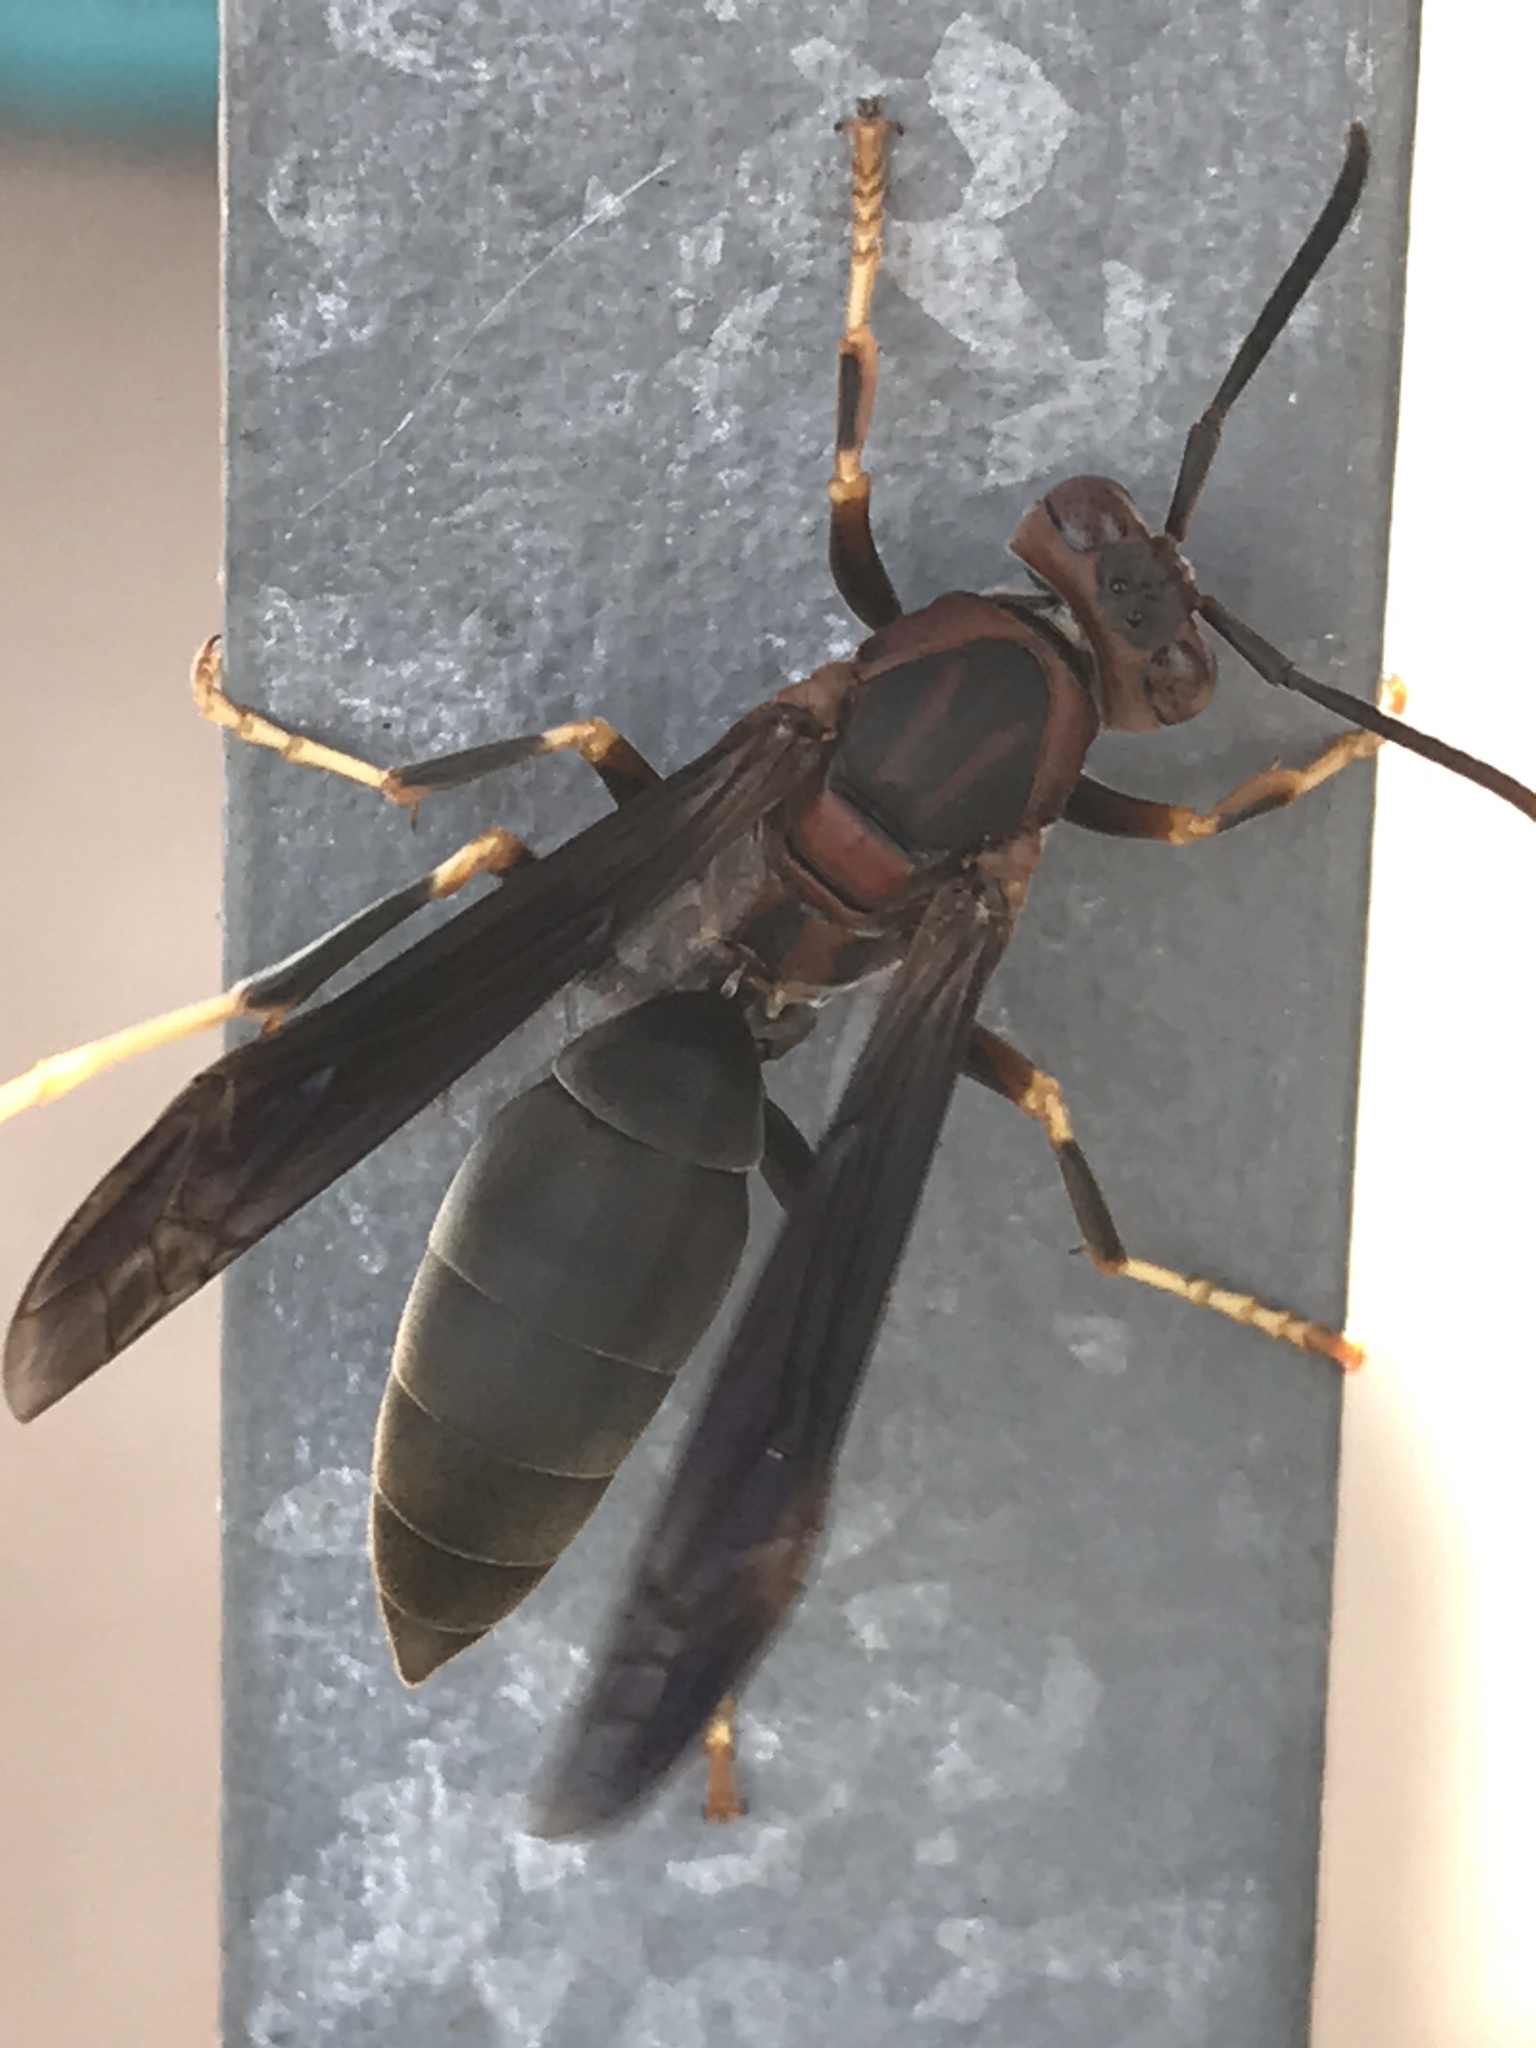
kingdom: Animalia
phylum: Arthropoda
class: Insecta
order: Hymenoptera
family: Eumenidae
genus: Polistes
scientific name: Polistes metricus
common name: Metric paper wasp
